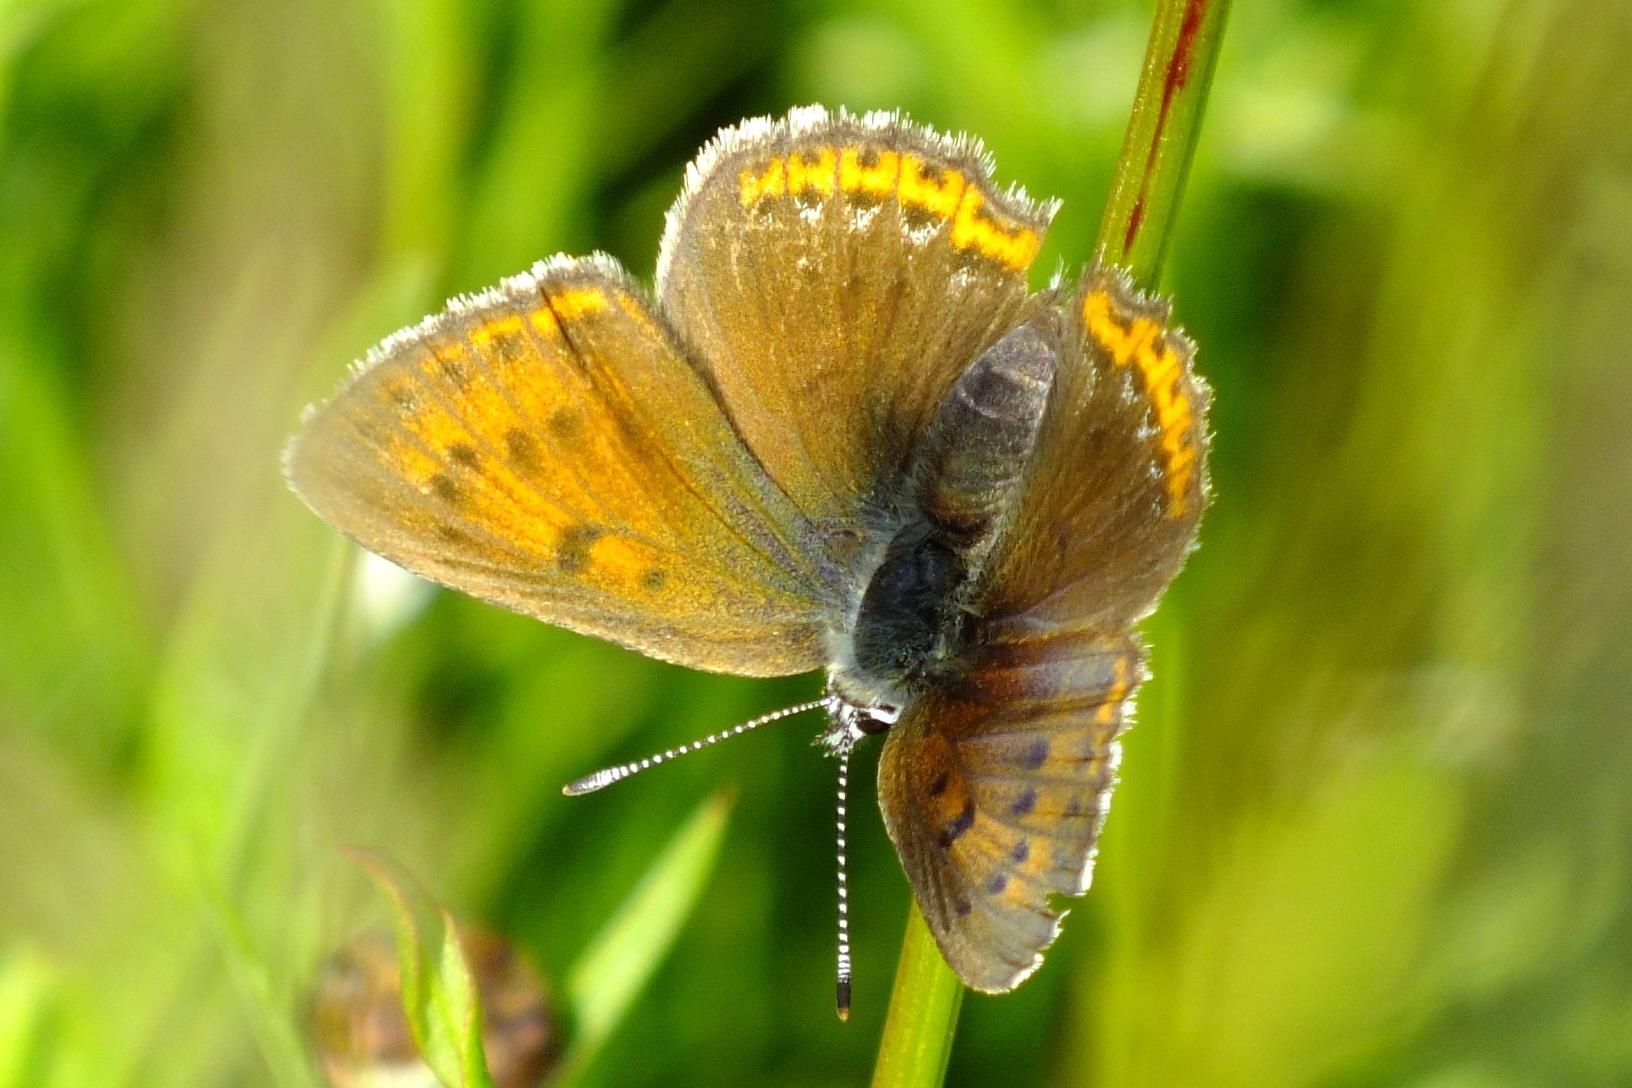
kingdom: Animalia
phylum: Arthropoda
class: Insecta
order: Lepidoptera
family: Lycaenidae
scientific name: Lycaenidae
